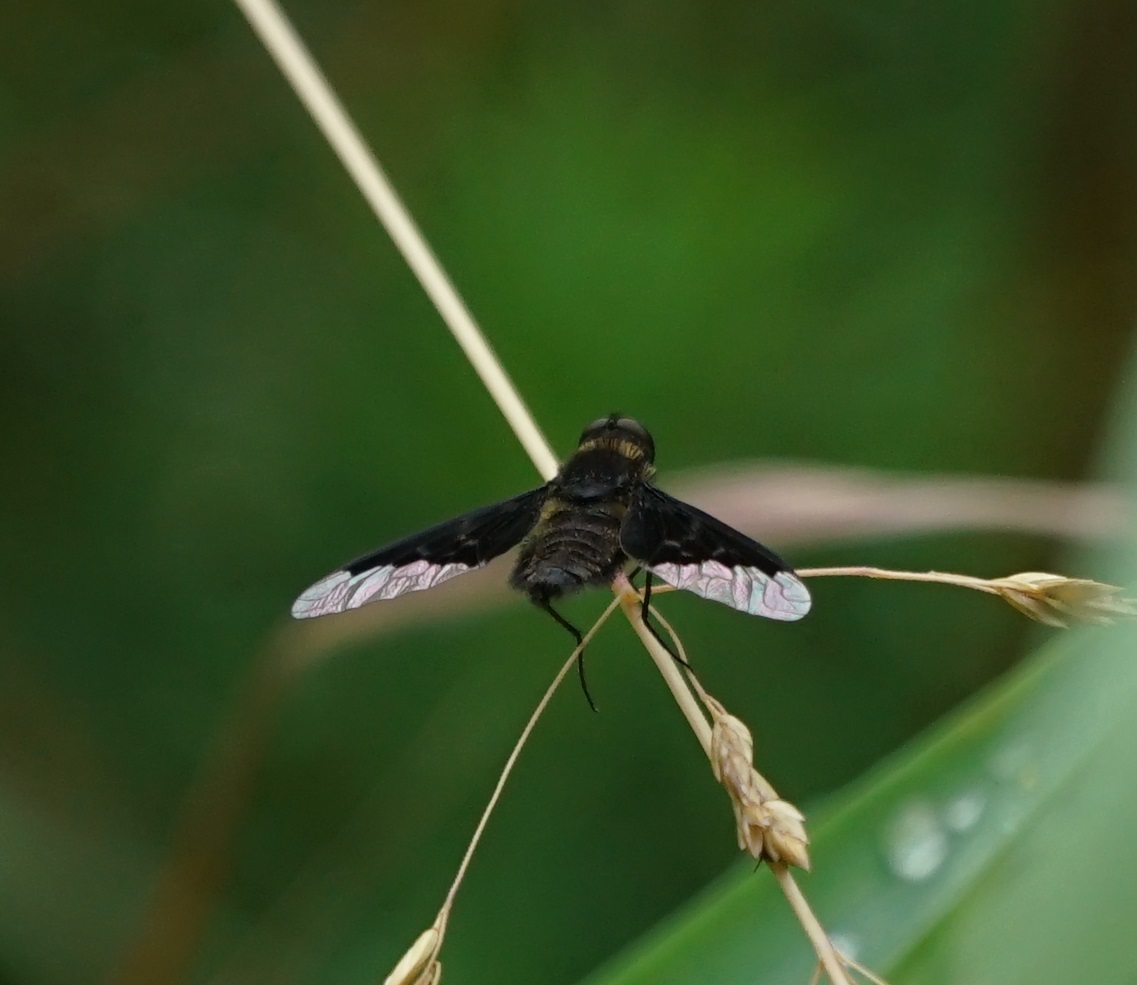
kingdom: Animalia
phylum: Arthropoda
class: Insecta
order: Diptera
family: Bombyliidae
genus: Hemipenthes
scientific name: Hemipenthes morio
